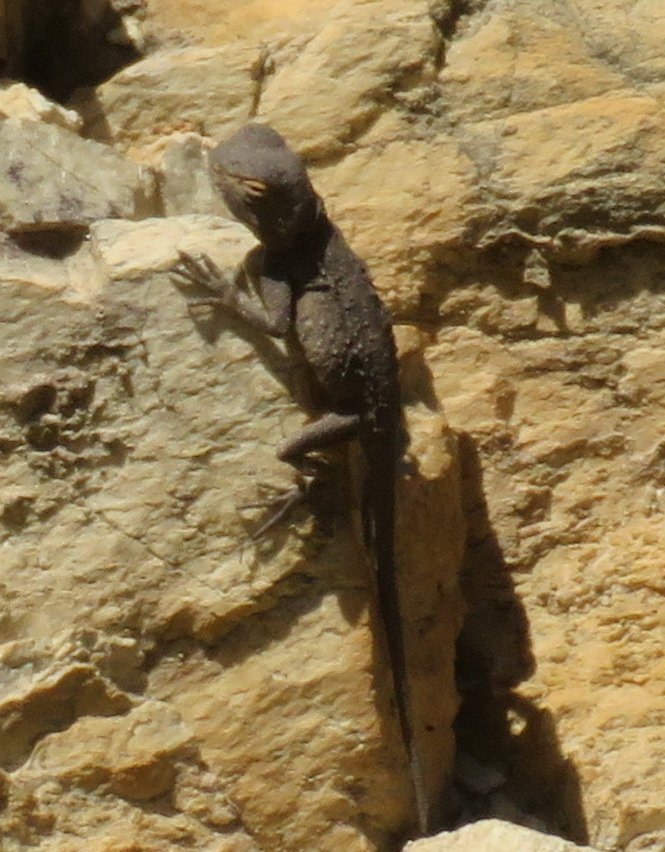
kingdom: Animalia
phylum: Chordata
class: Squamata
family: Agamidae
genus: Agama
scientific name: Agama atra
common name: Southern african rock agama
